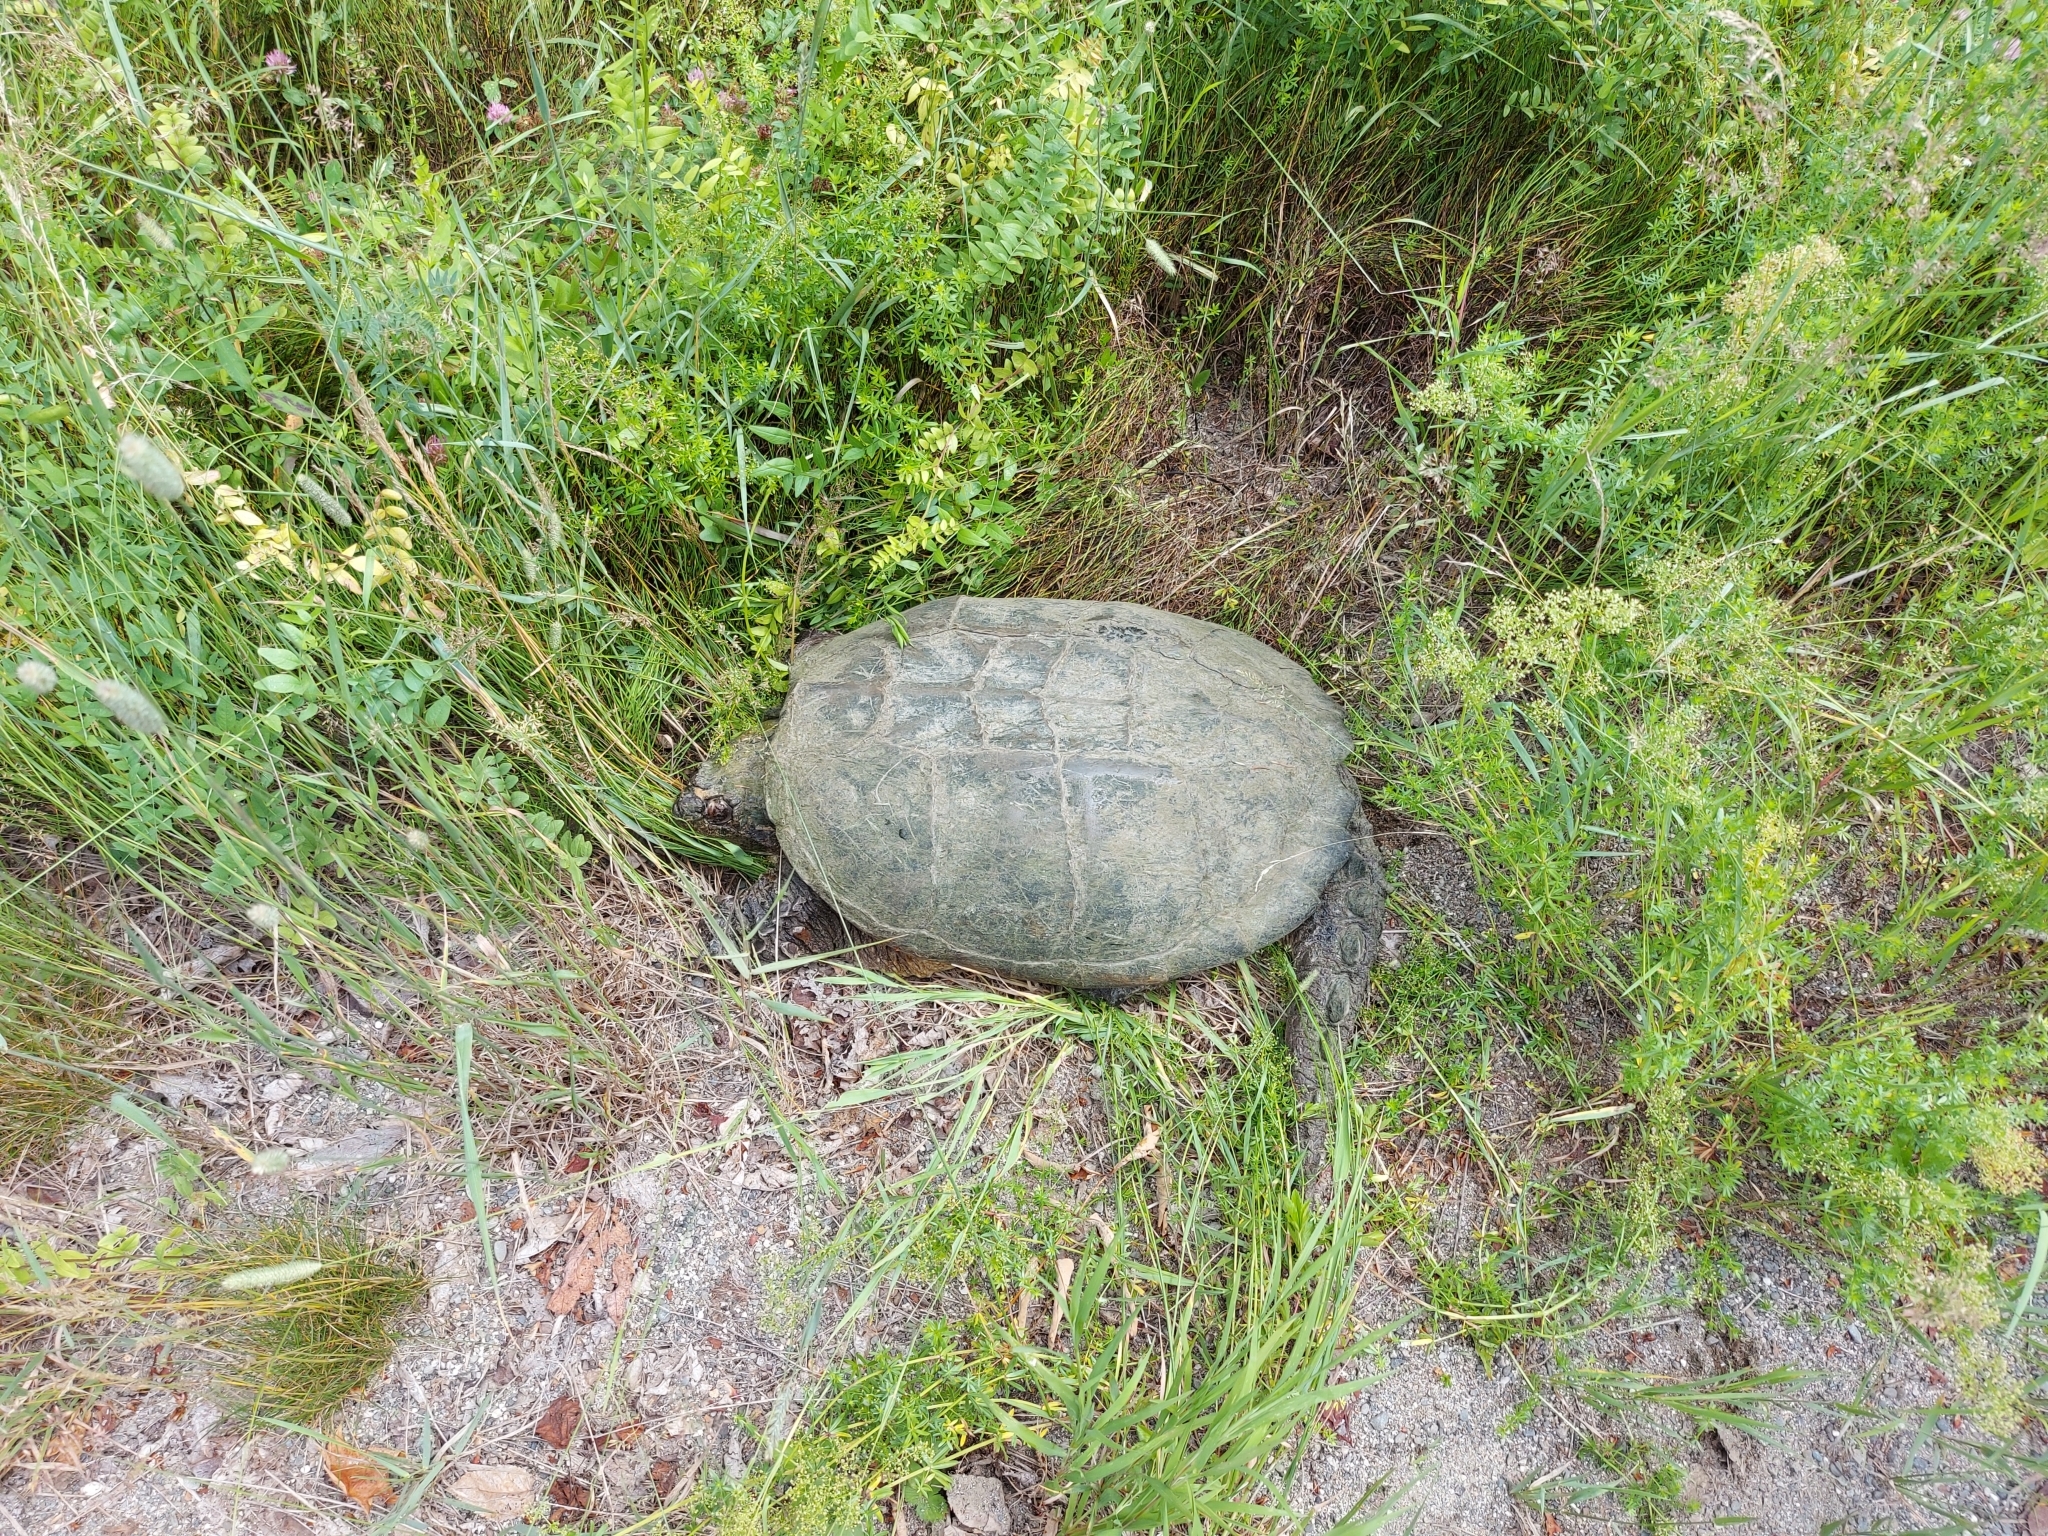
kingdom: Animalia
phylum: Chordata
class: Testudines
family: Chelydridae
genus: Chelydra
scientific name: Chelydra serpentina
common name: Common snapping turtle
